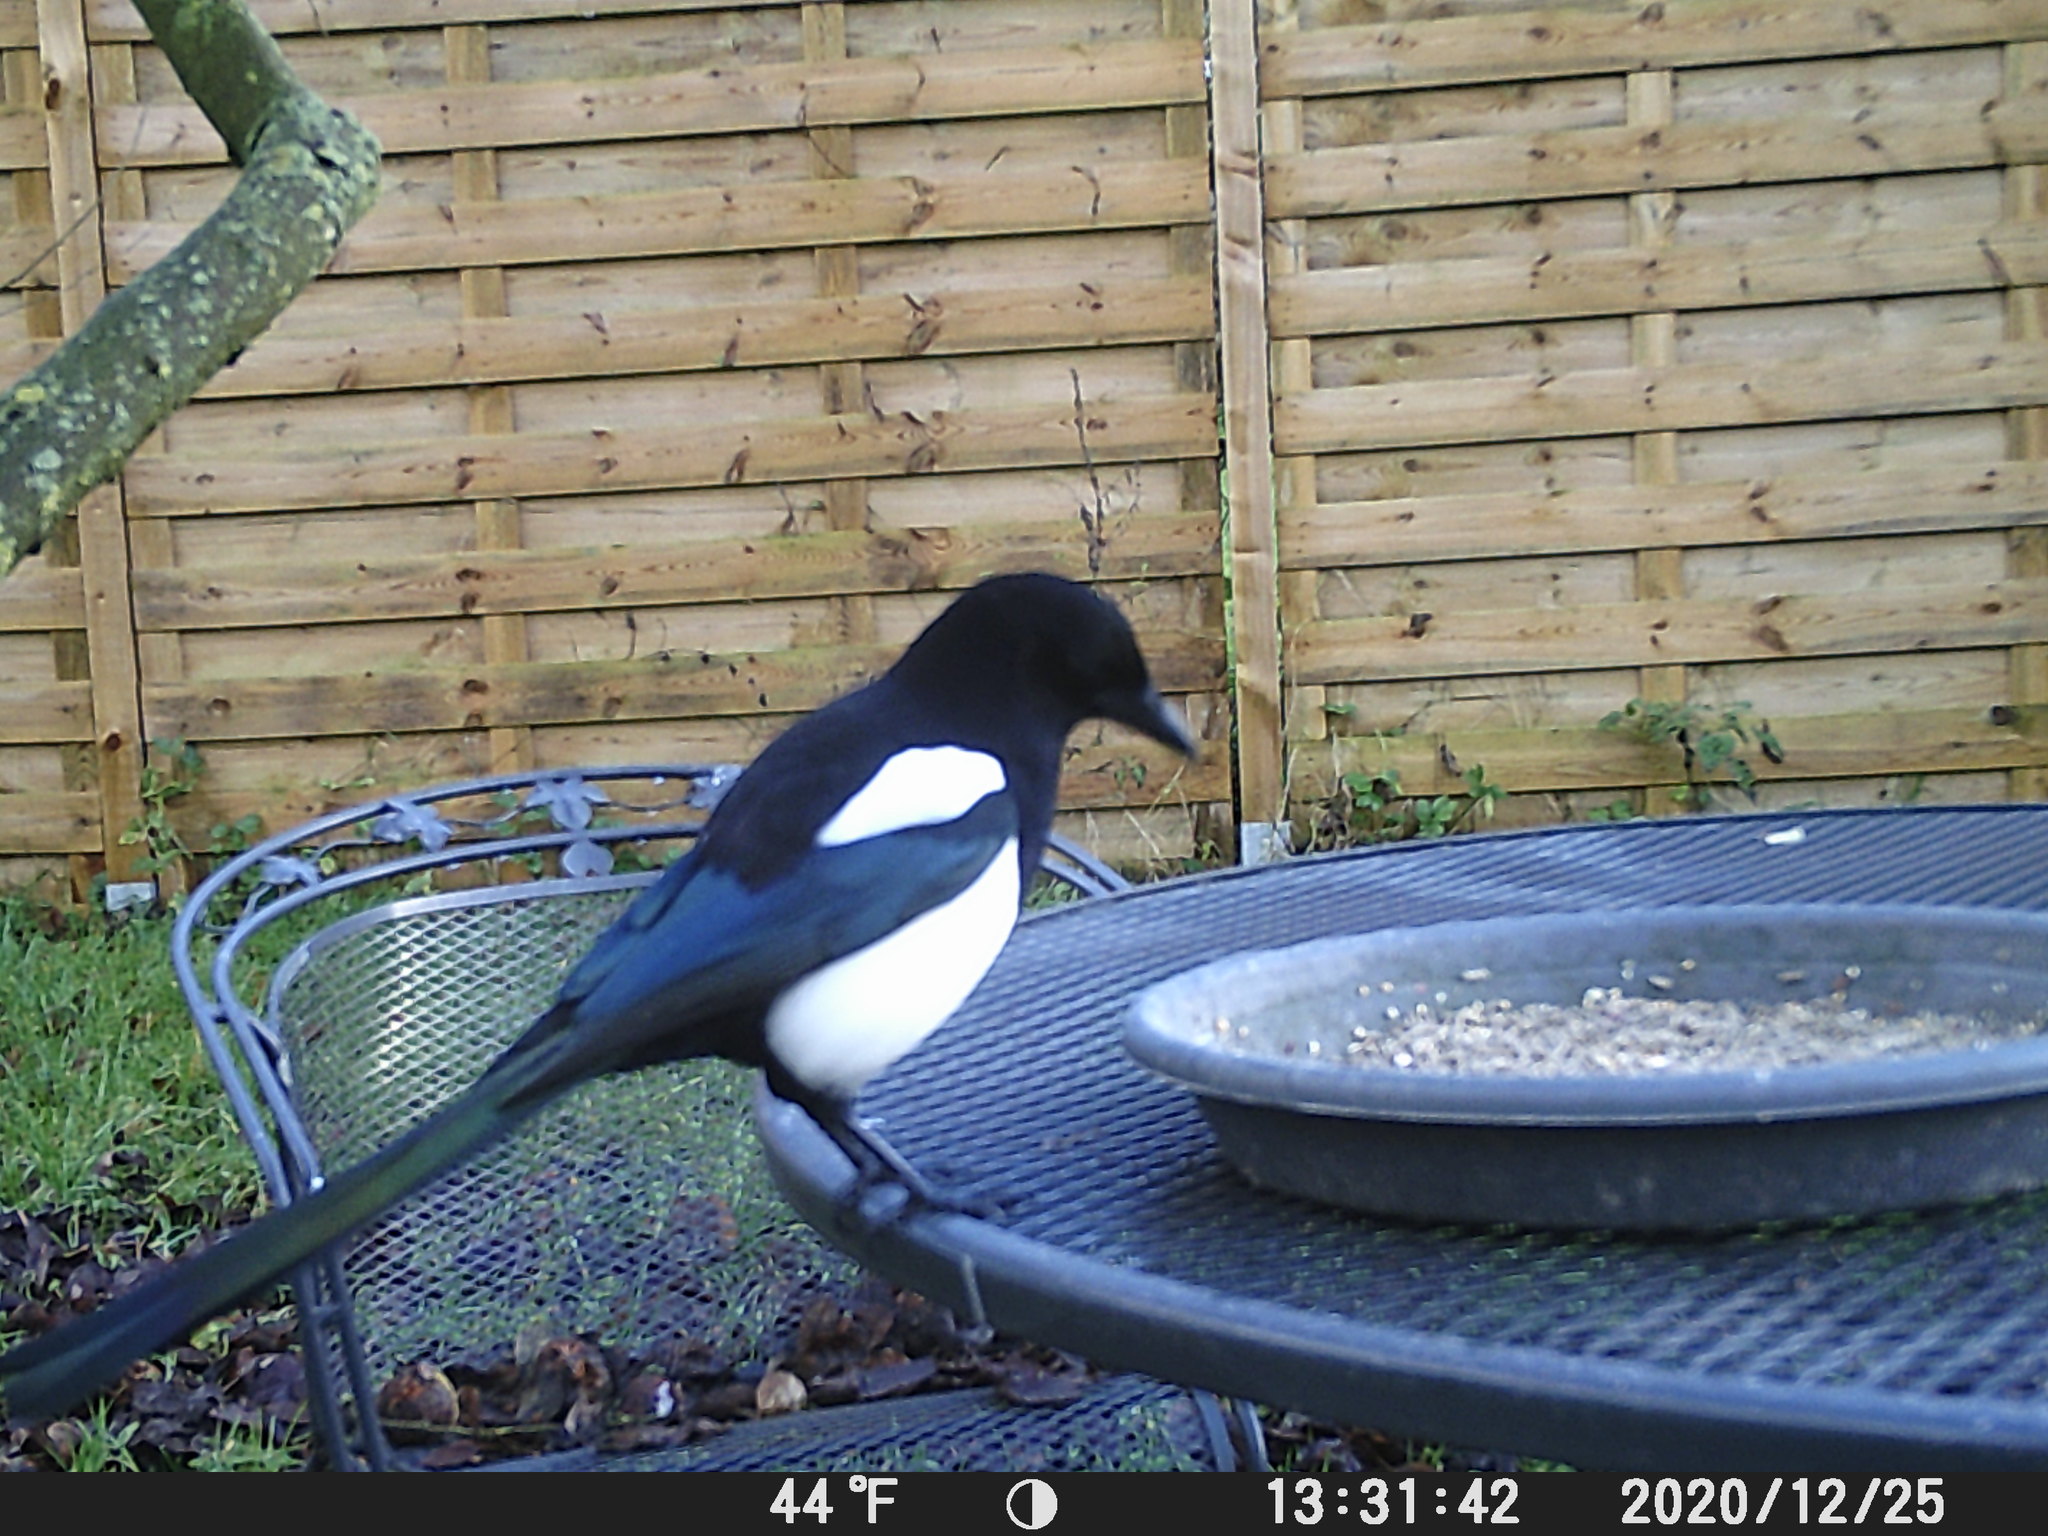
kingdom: Animalia
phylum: Chordata
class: Aves
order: Passeriformes
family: Corvidae
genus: Pica
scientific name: Pica pica
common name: Eurasian magpie
